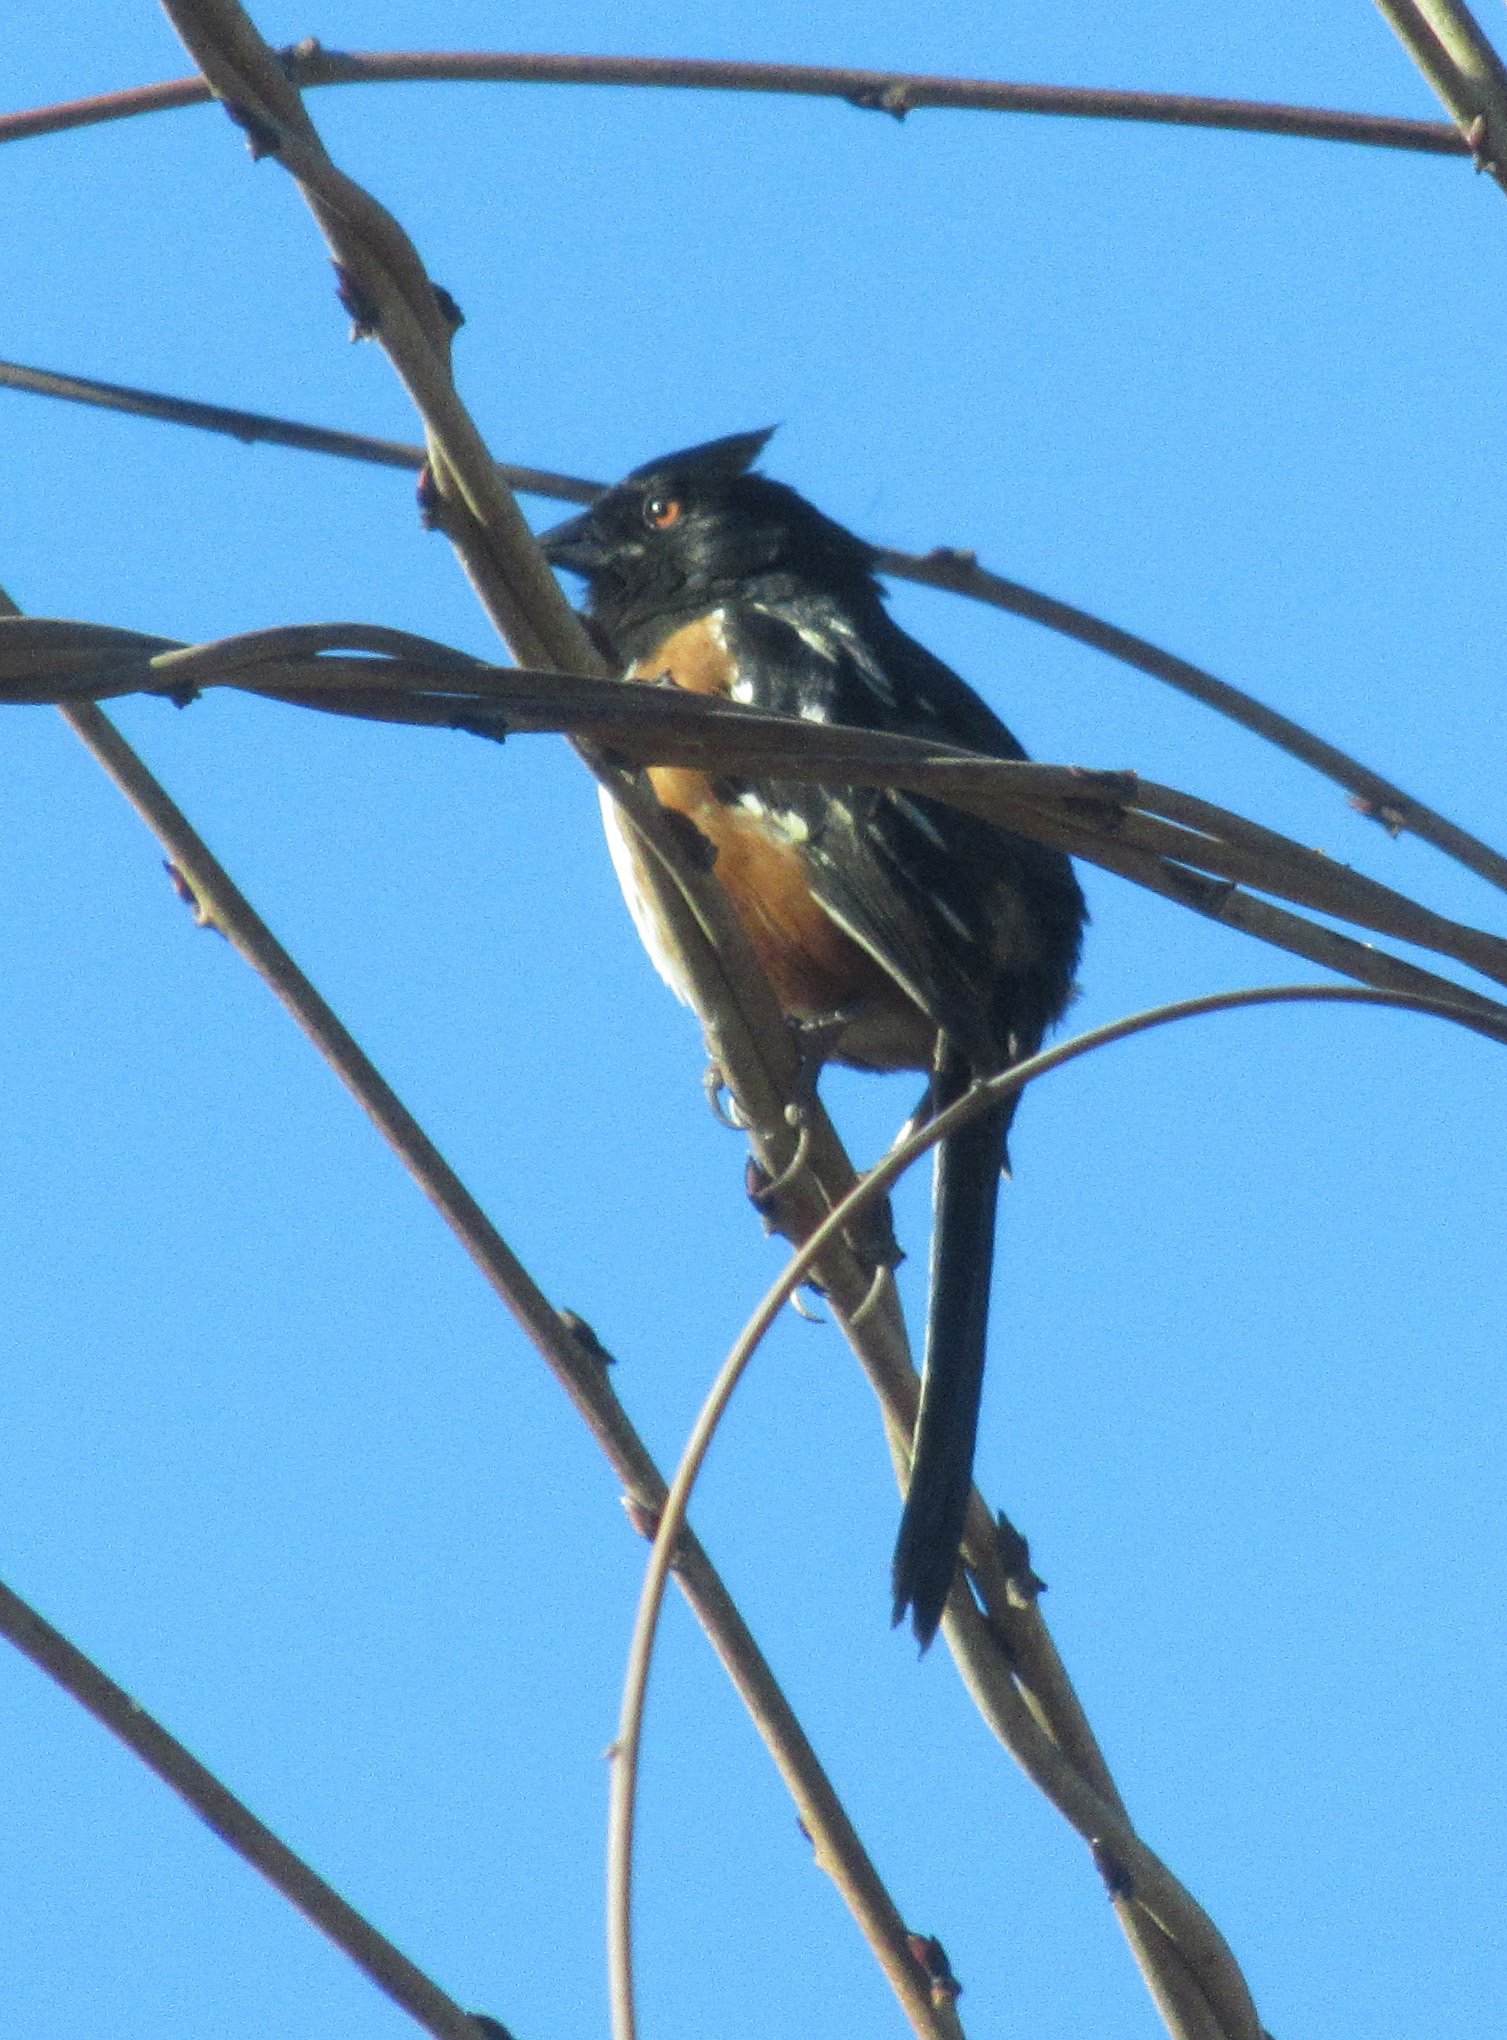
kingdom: Animalia
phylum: Chordata
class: Aves
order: Passeriformes
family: Passerellidae
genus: Pipilo
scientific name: Pipilo maculatus
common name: Spotted towhee
